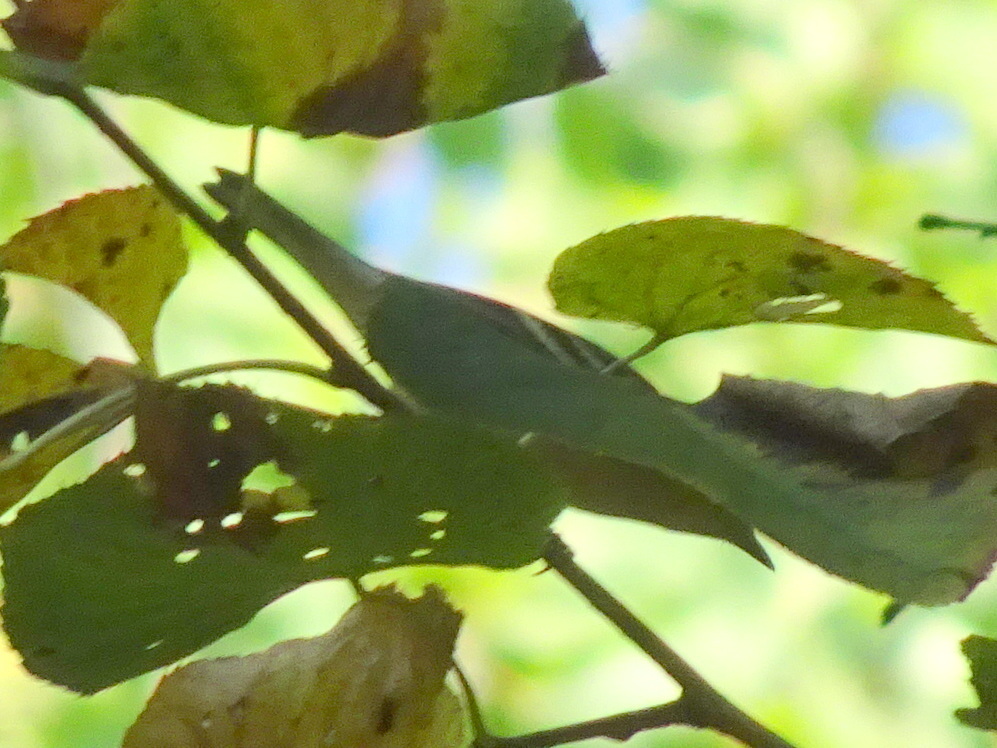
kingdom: Animalia
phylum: Chordata
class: Aves
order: Passeriformes
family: Parulidae
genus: Setophaga
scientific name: Setophaga striata
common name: Blackpoll warbler
